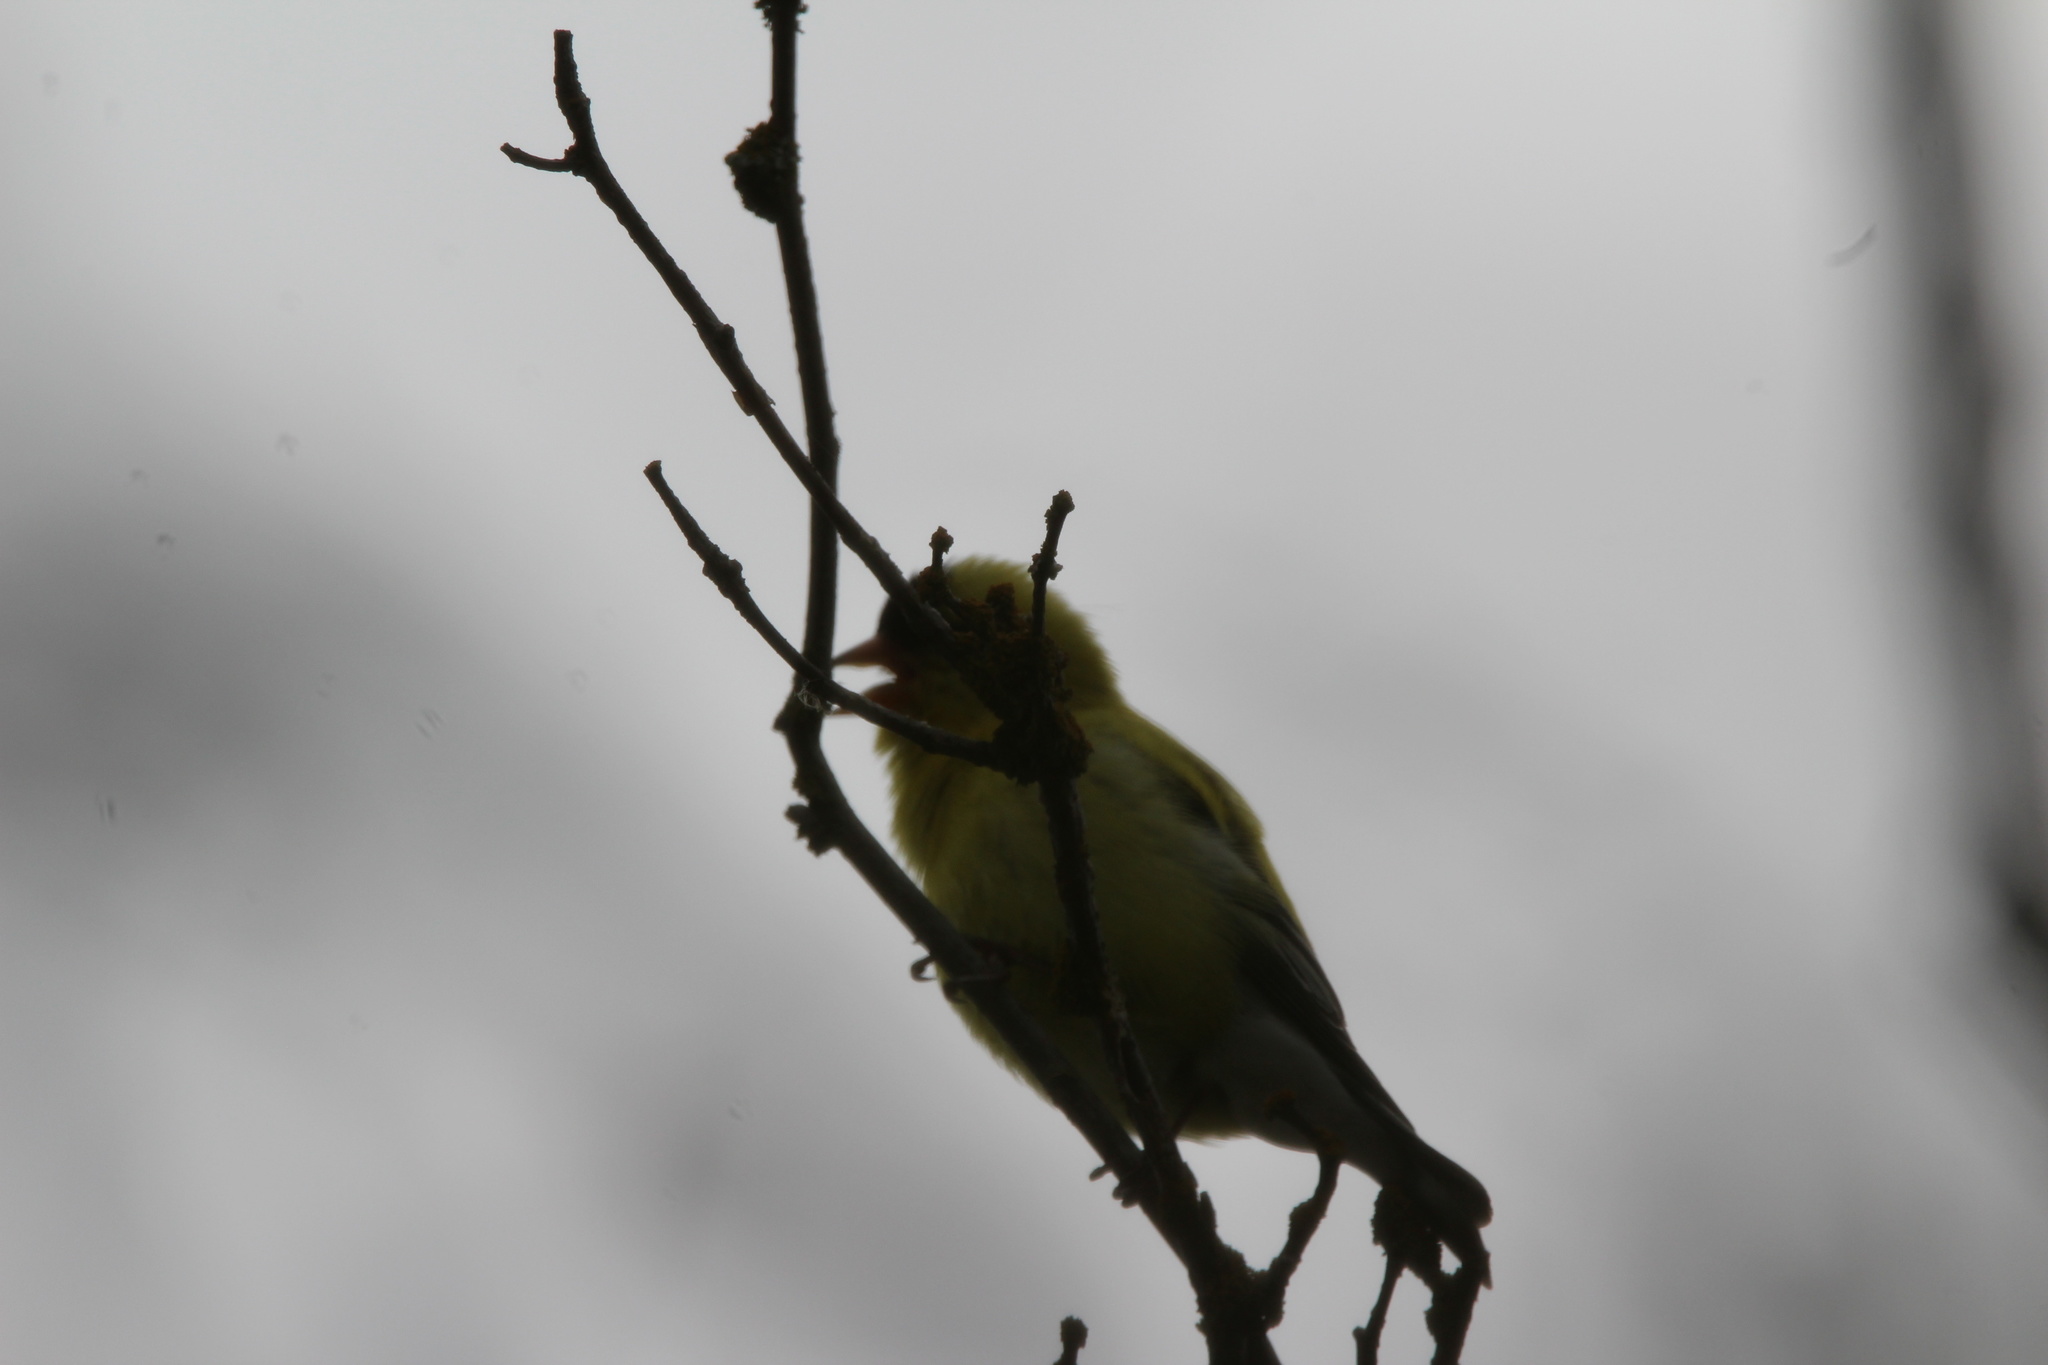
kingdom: Animalia
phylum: Chordata
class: Aves
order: Passeriformes
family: Fringillidae
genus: Spinus
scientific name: Spinus tristis
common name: American goldfinch
